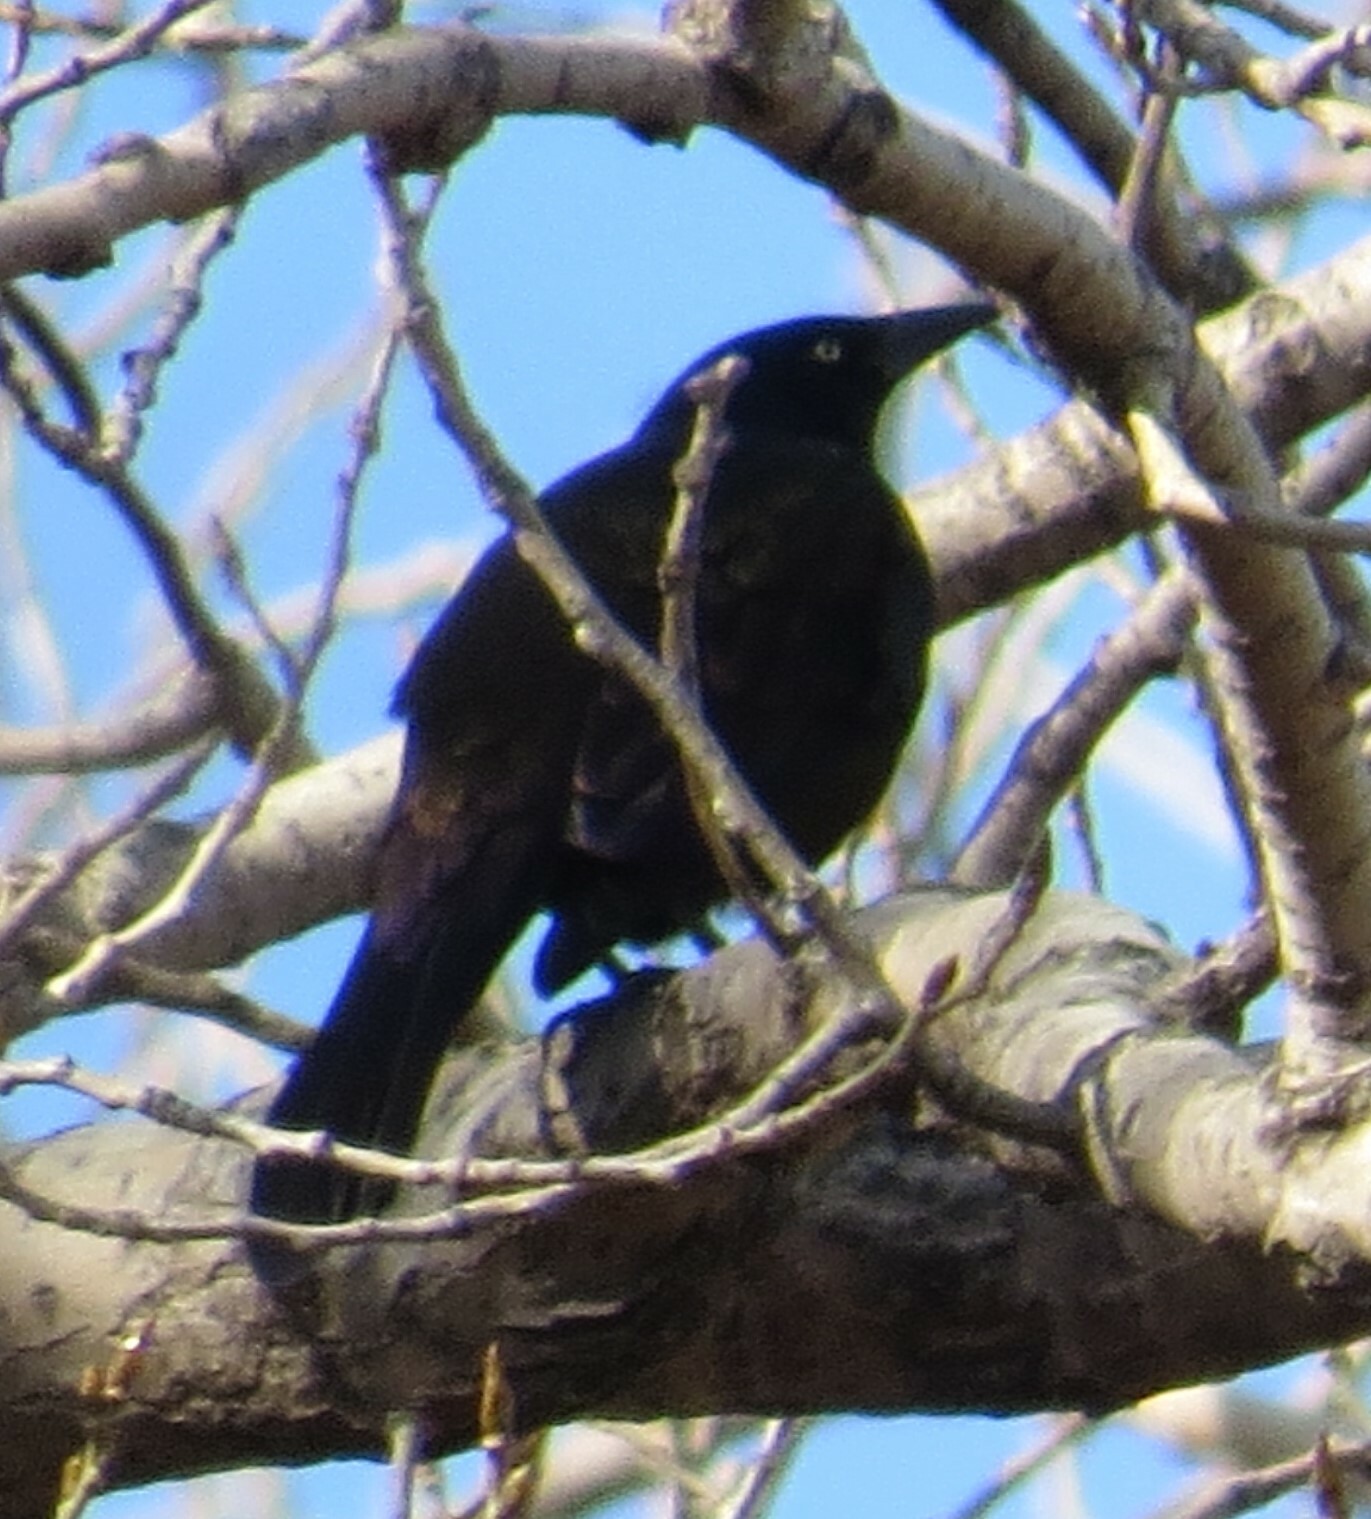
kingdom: Animalia
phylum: Chordata
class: Aves
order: Passeriformes
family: Icteridae
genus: Quiscalus
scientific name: Quiscalus quiscula
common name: Common grackle
